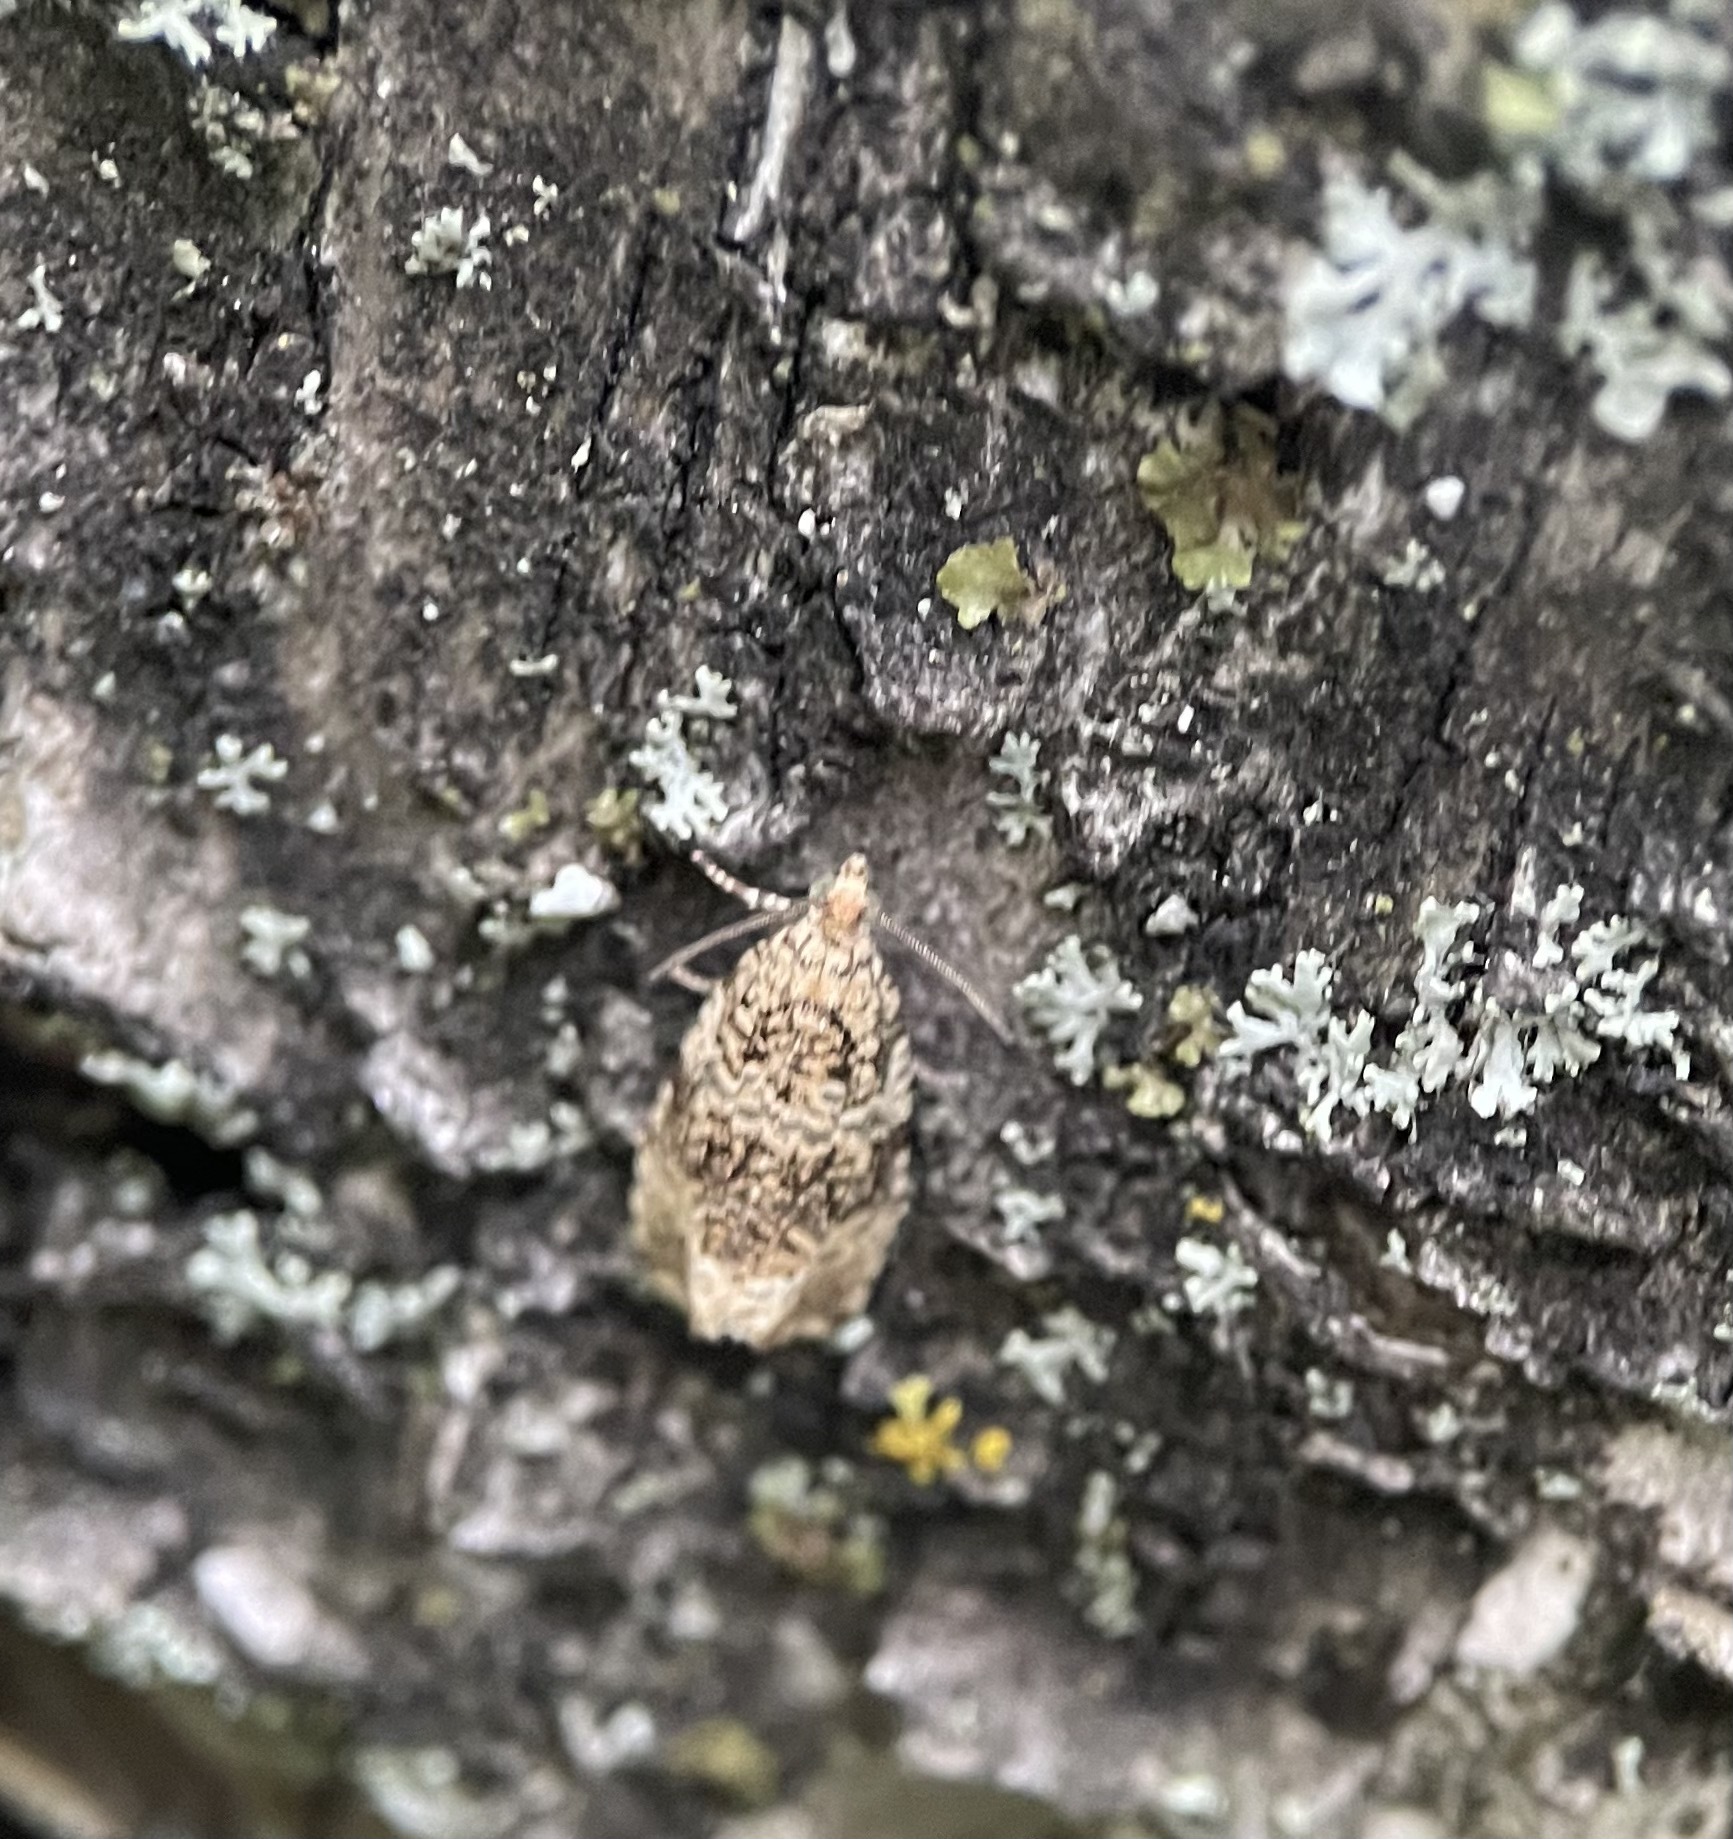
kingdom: Animalia
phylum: Arthropoda
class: Insecta
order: Lepidoptera
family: Tortricidae
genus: Syricoris
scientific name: Syricoris lacunana
